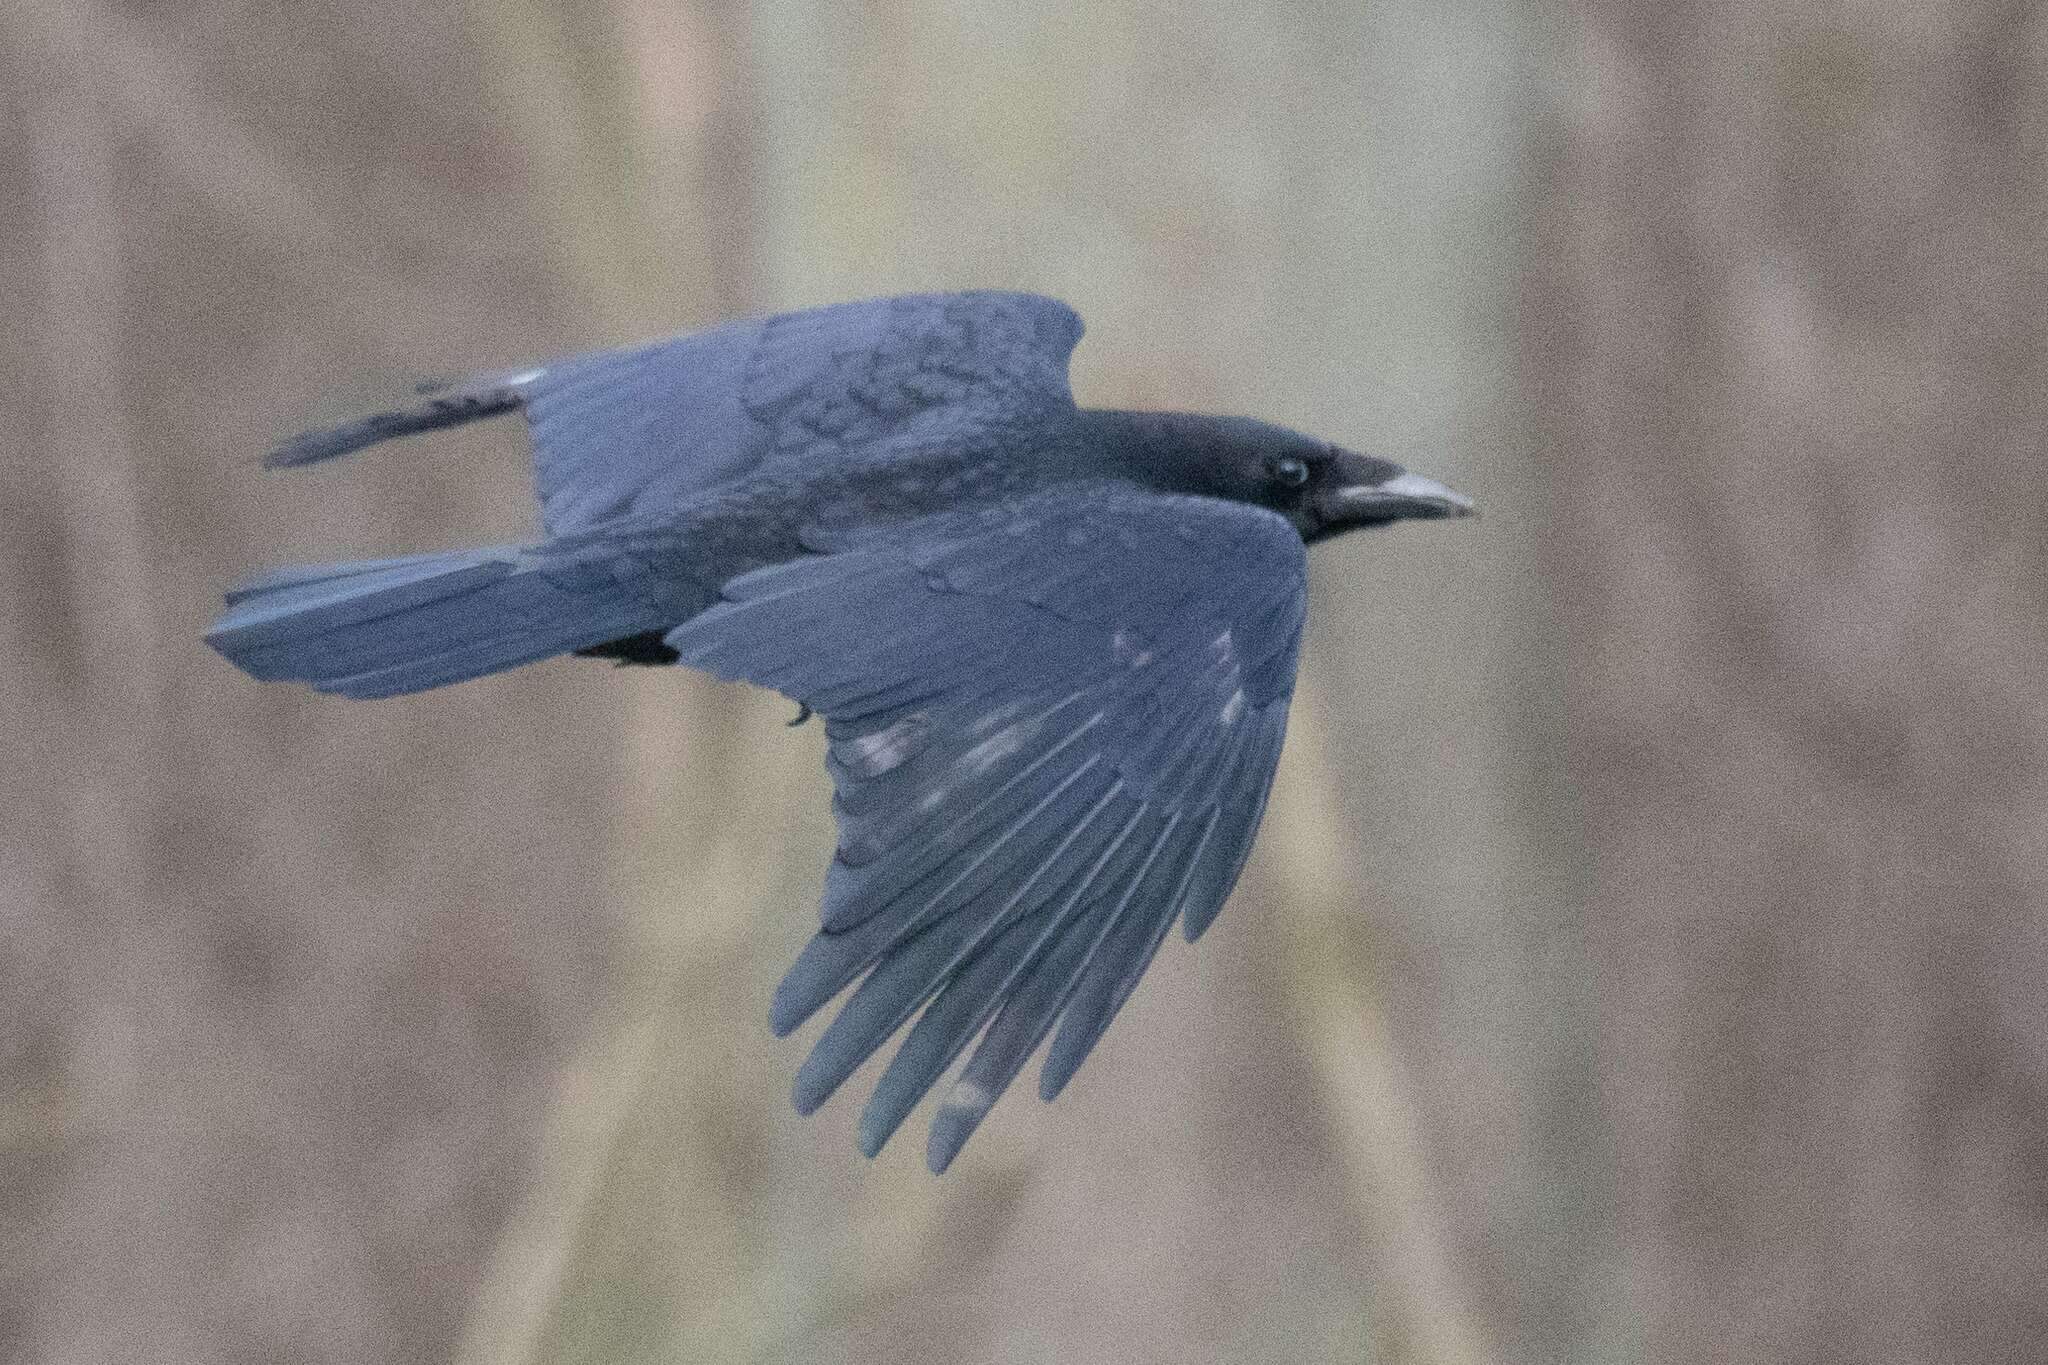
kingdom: Animalia
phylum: Chordata
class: Aves
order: Passeriformes
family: Corvidae
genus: Corvus
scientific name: Corvus corone
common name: Carrion crow
